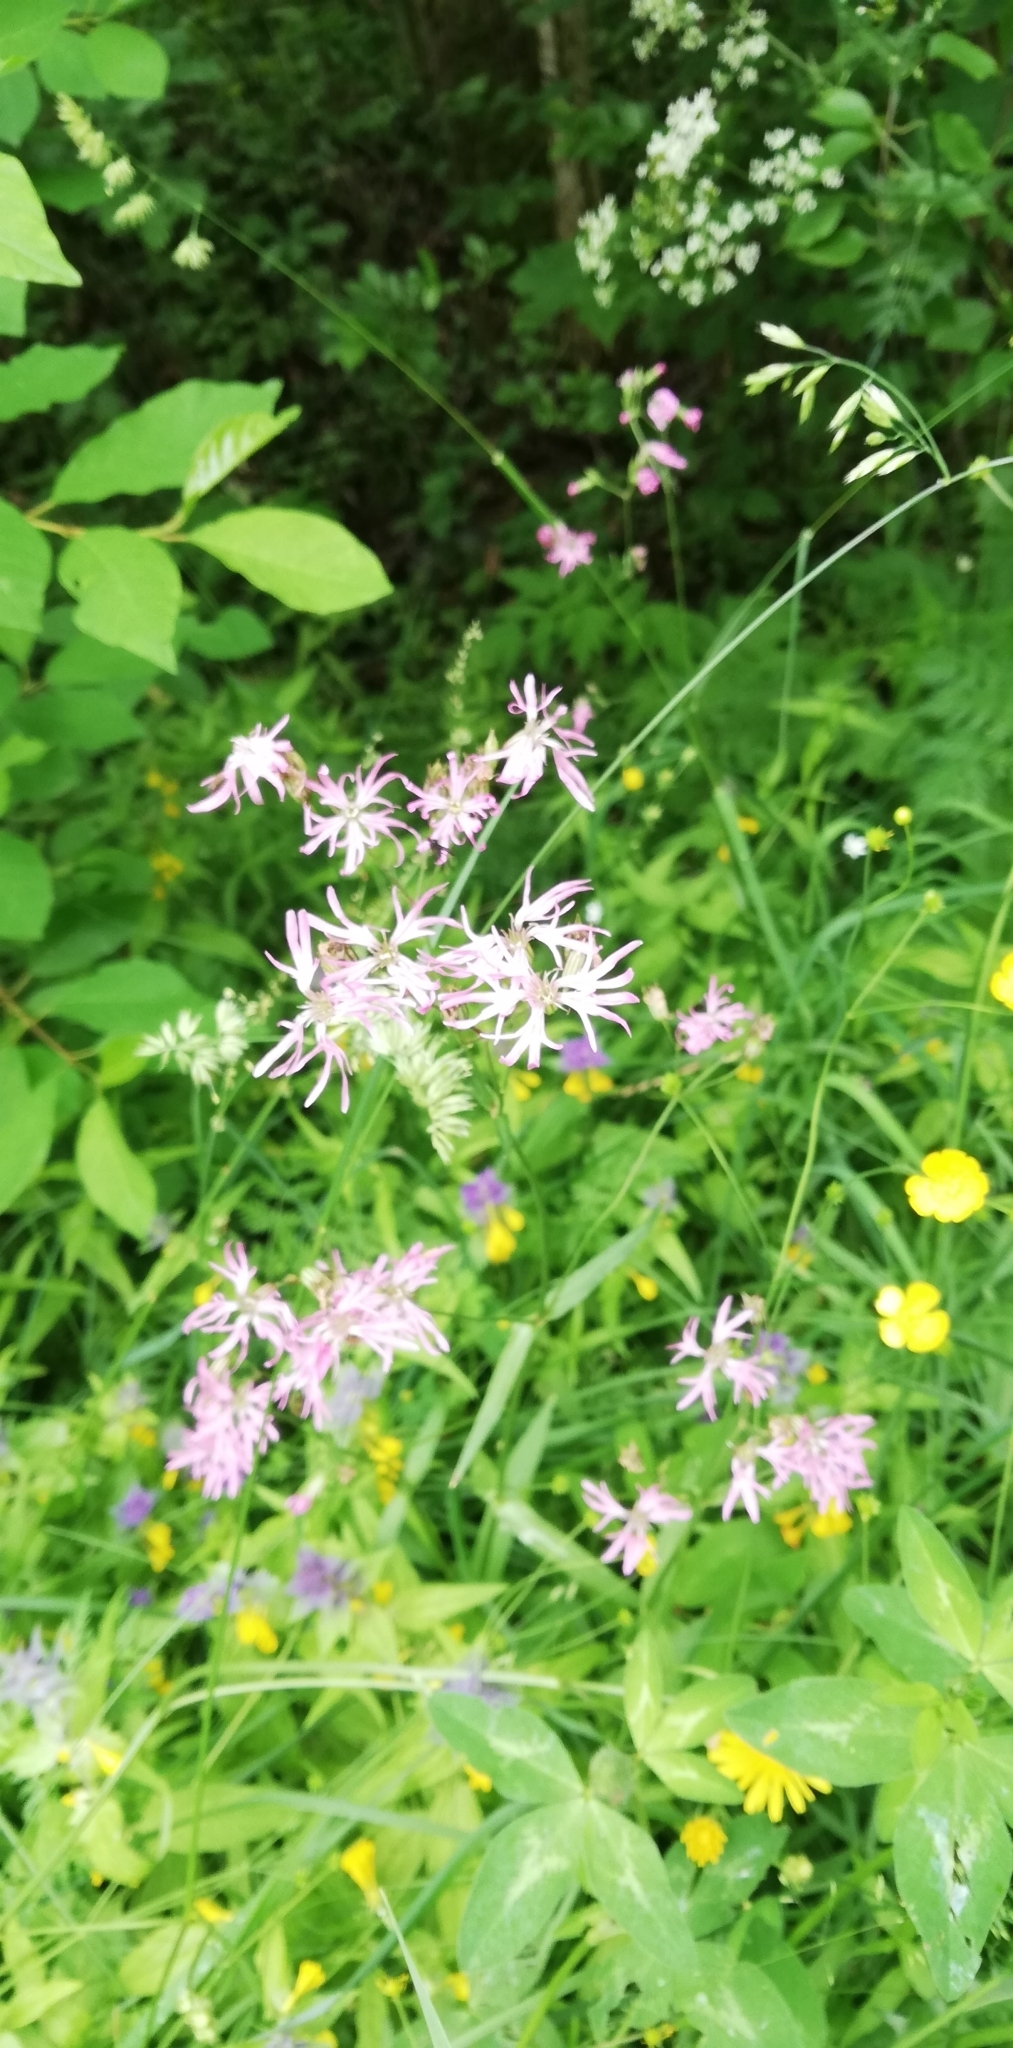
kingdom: Plantae
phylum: Tracheophyta
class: Magnoliopsida
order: Caryophyllales
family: Caryophyllaceae
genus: Silene
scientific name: Silene flos-cuculi
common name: Ragged-robin
